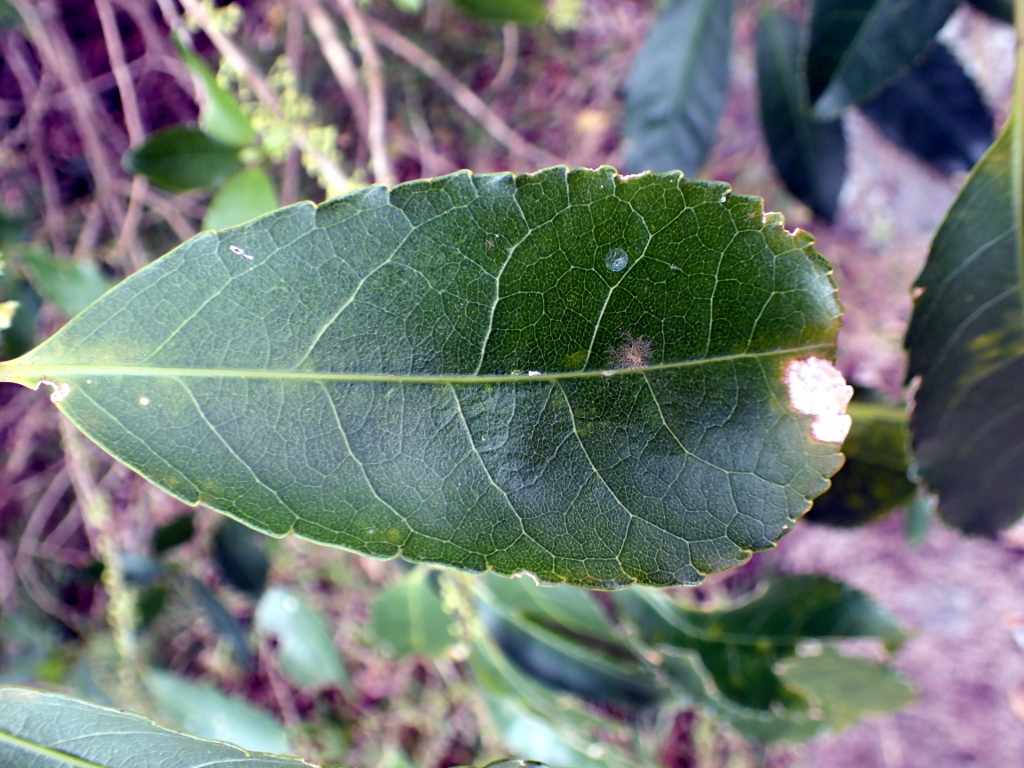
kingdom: Plantae
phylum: Tracheophyta
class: Magnoliopsida
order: Malpighiales
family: Violaceae
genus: Melicytus
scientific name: Melicytus ramiflorus
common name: Mahoe
